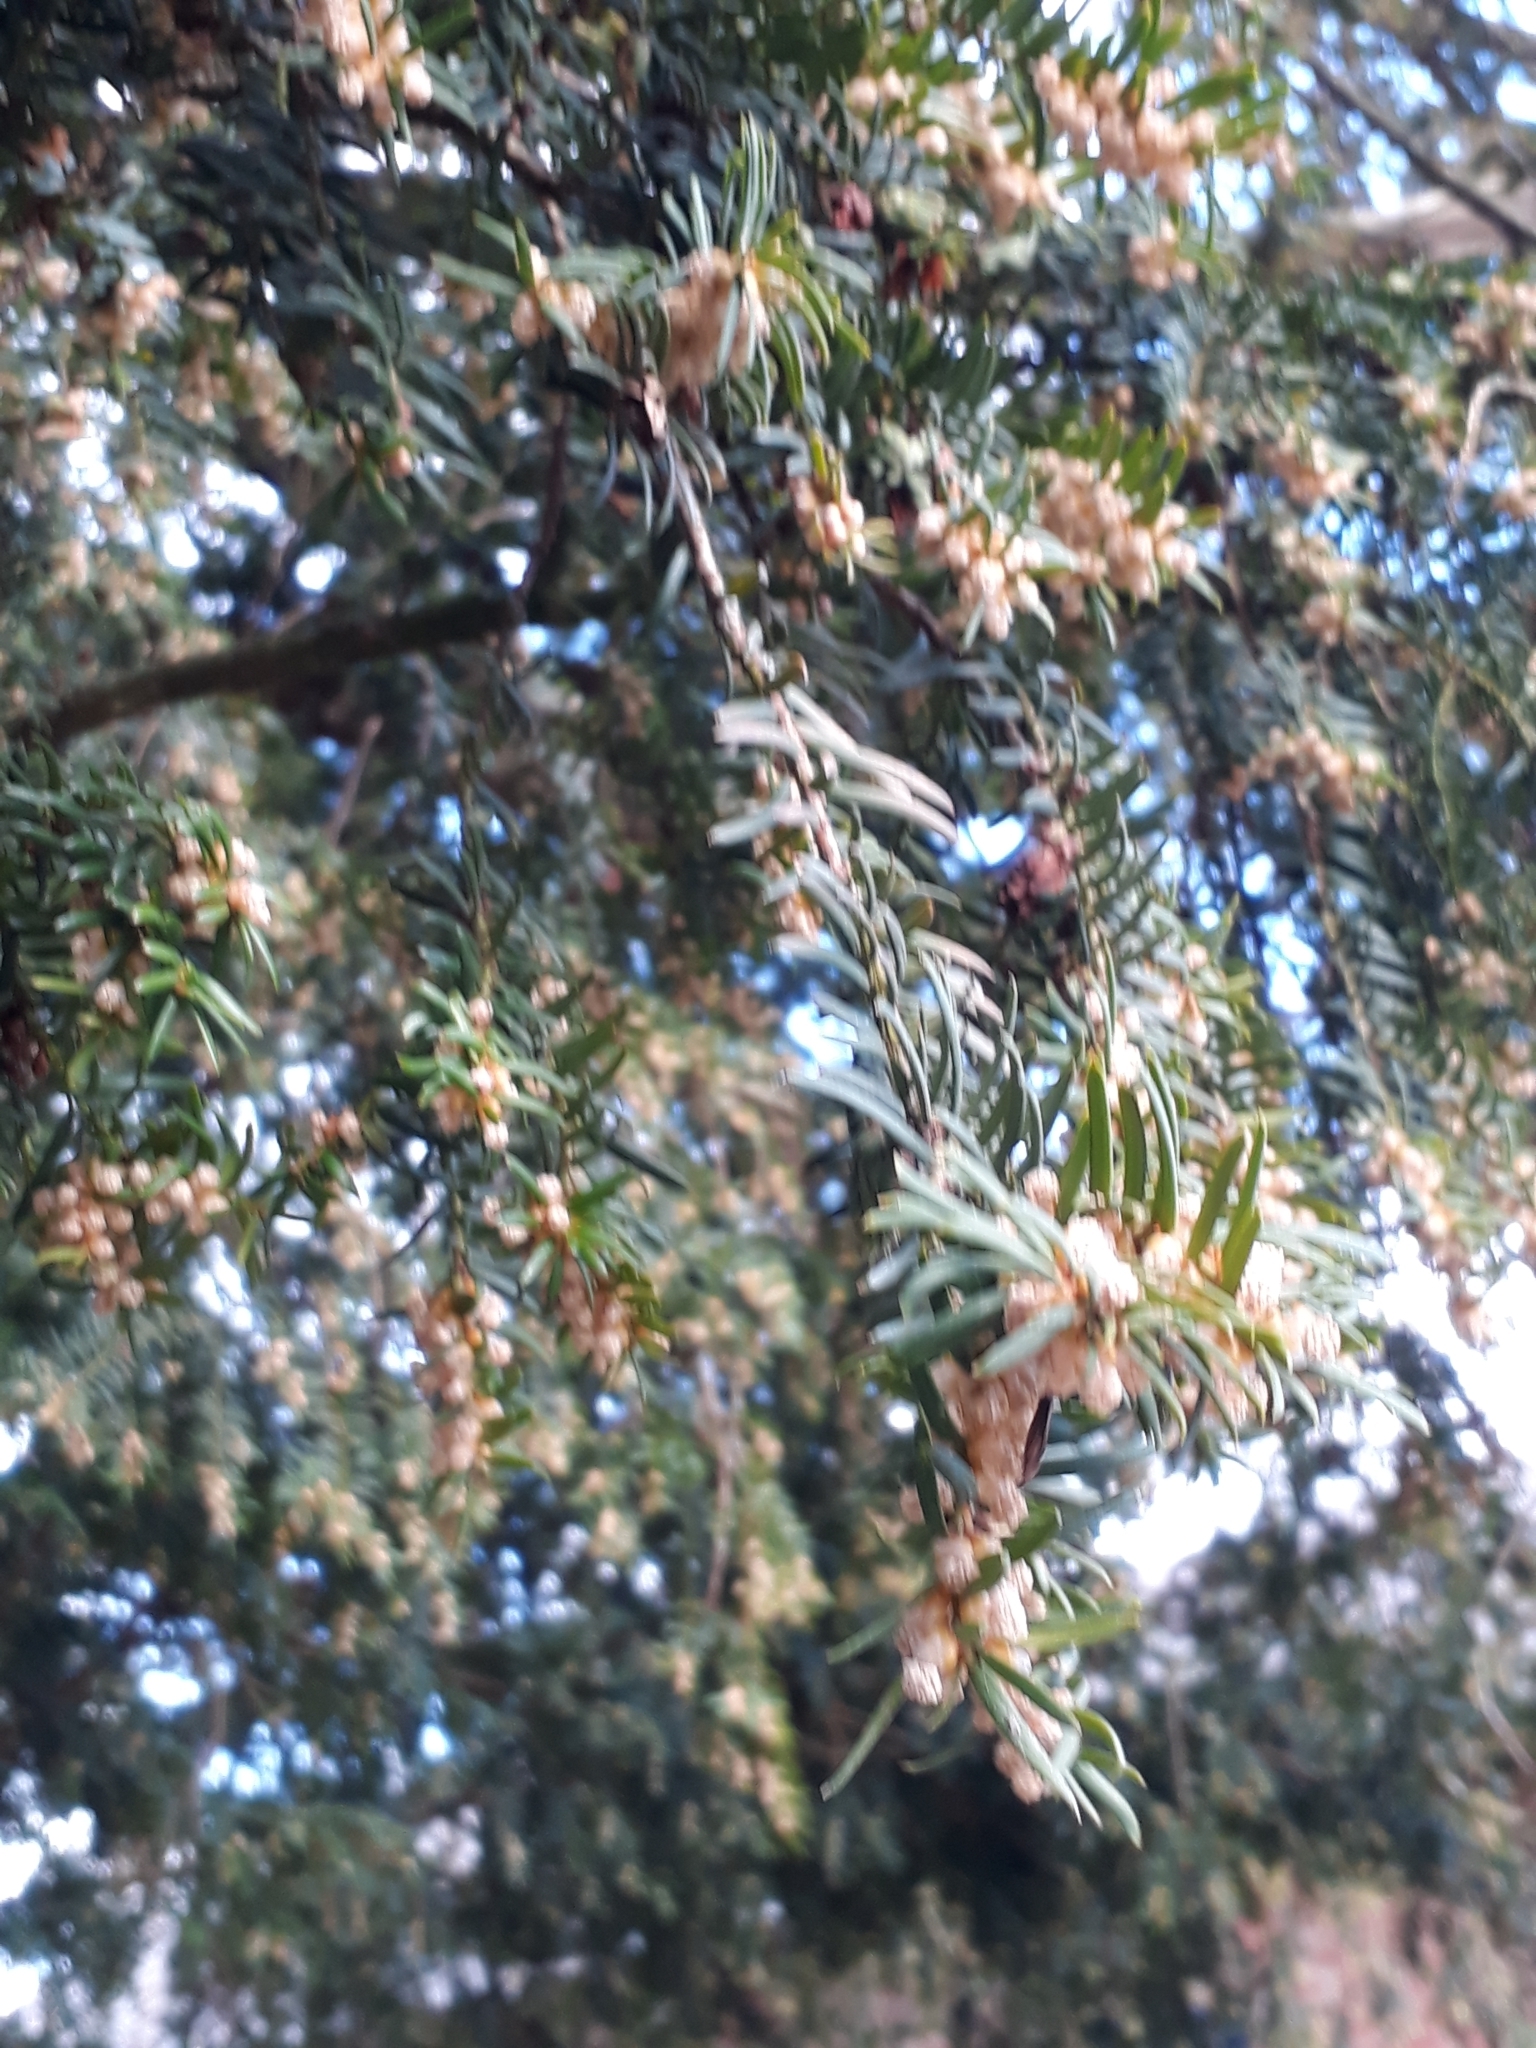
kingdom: Plantae
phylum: Tracheophyta
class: Pinopsida
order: Pinales
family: Taxaceae
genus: Taxus
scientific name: Taxus baccata
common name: Yew
